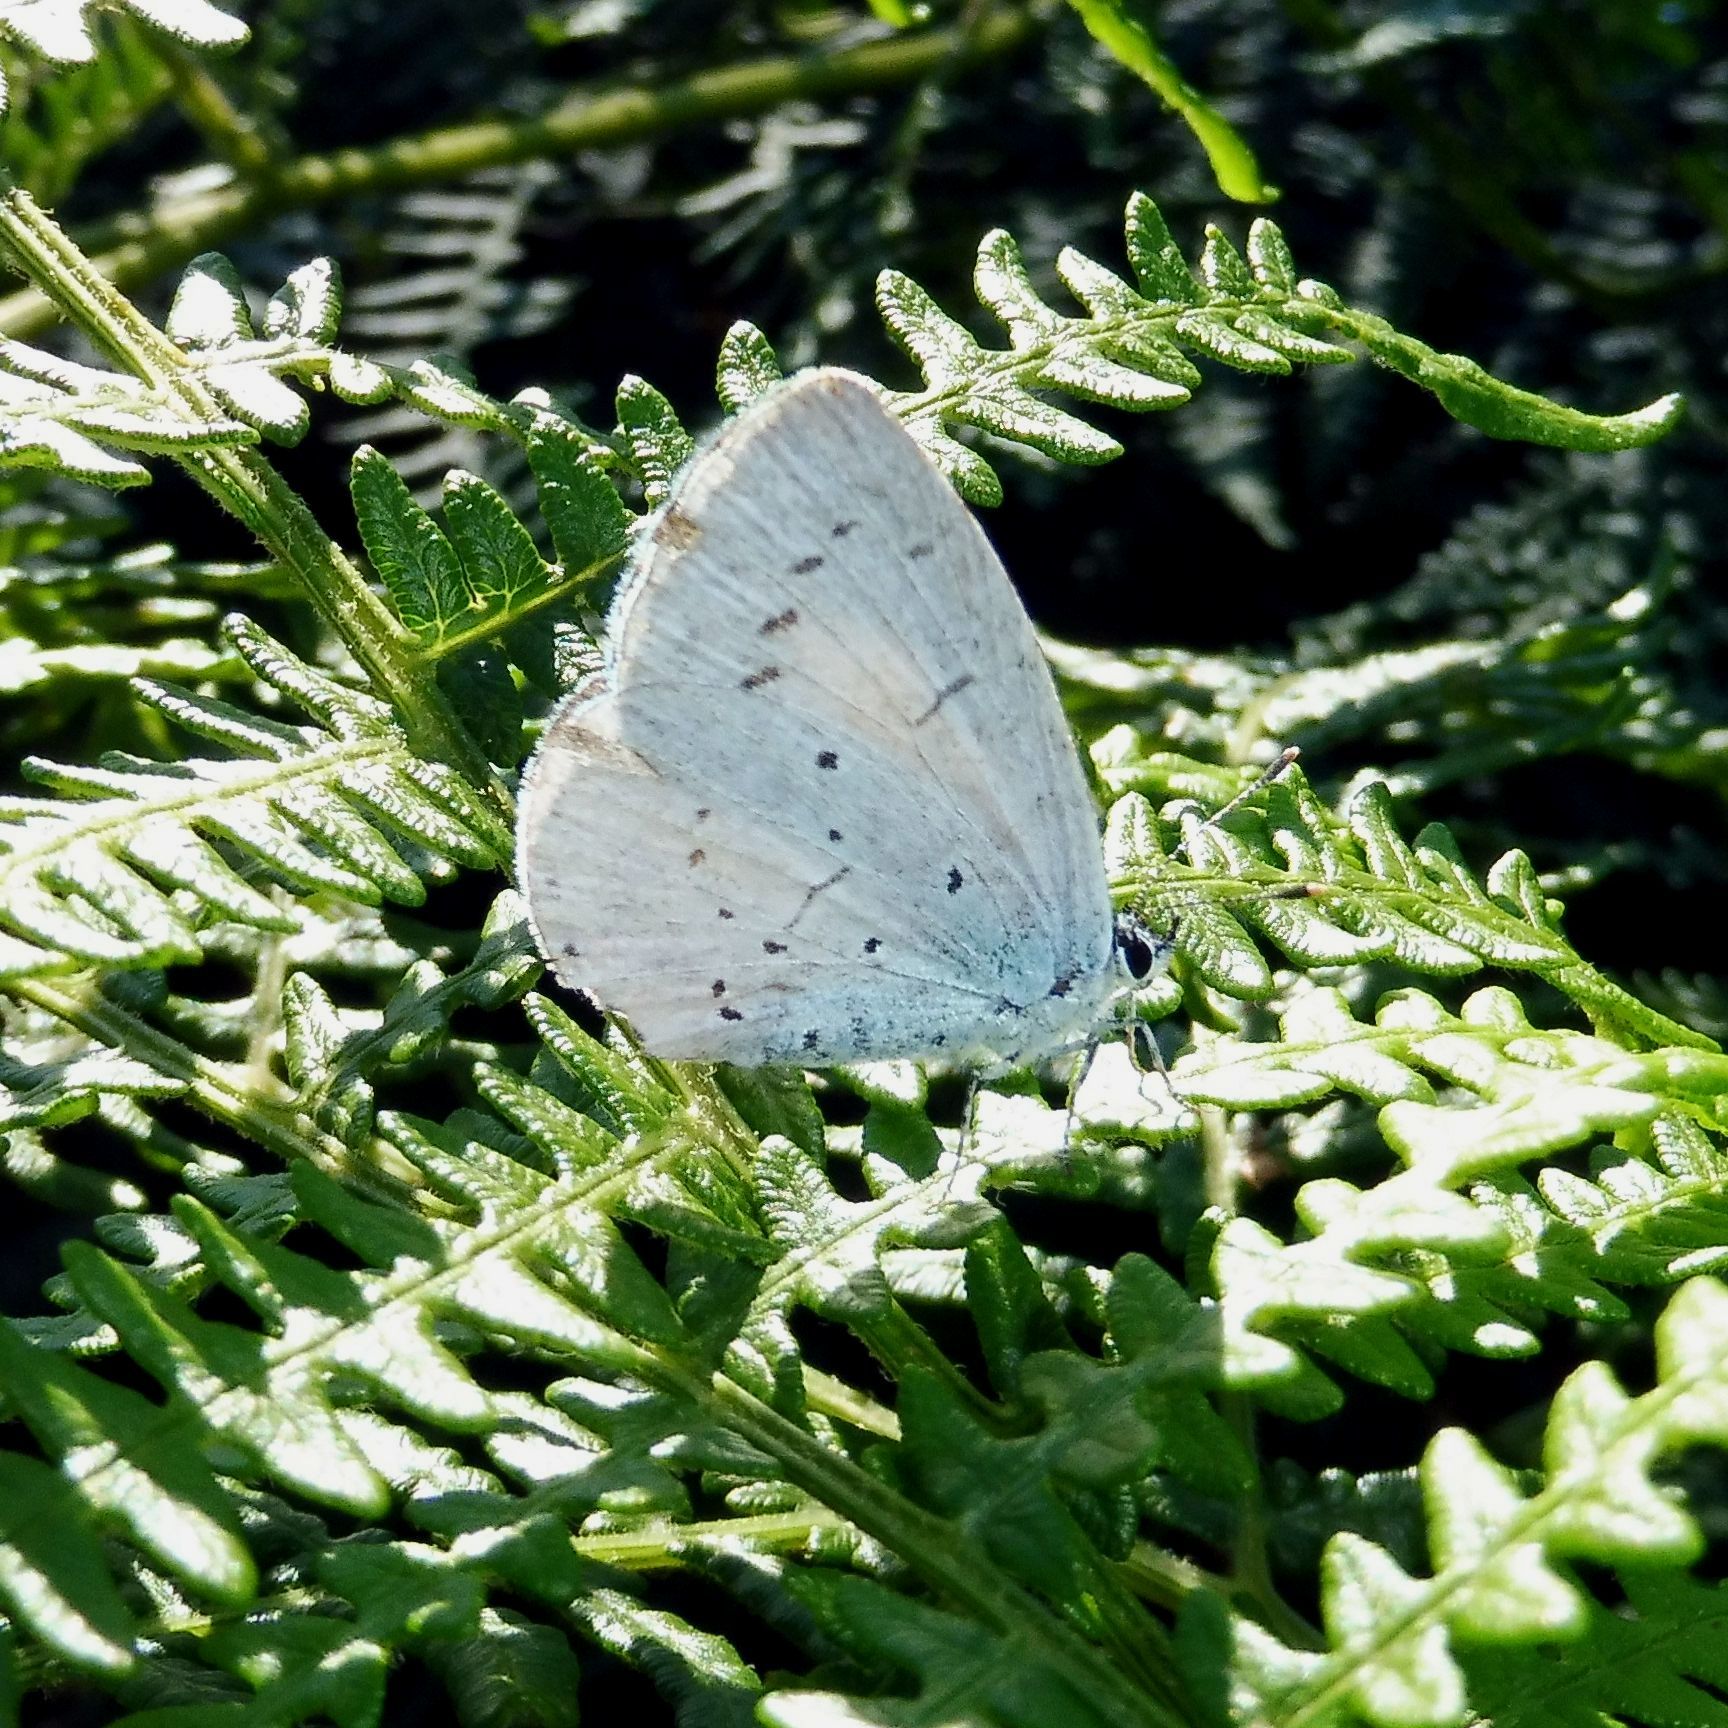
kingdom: Animalia
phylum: Arthropoda
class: Insecta
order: Lepidoptera
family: Lycaenidae
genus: Celastrina
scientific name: Celastrina argiolus
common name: Holly blue
